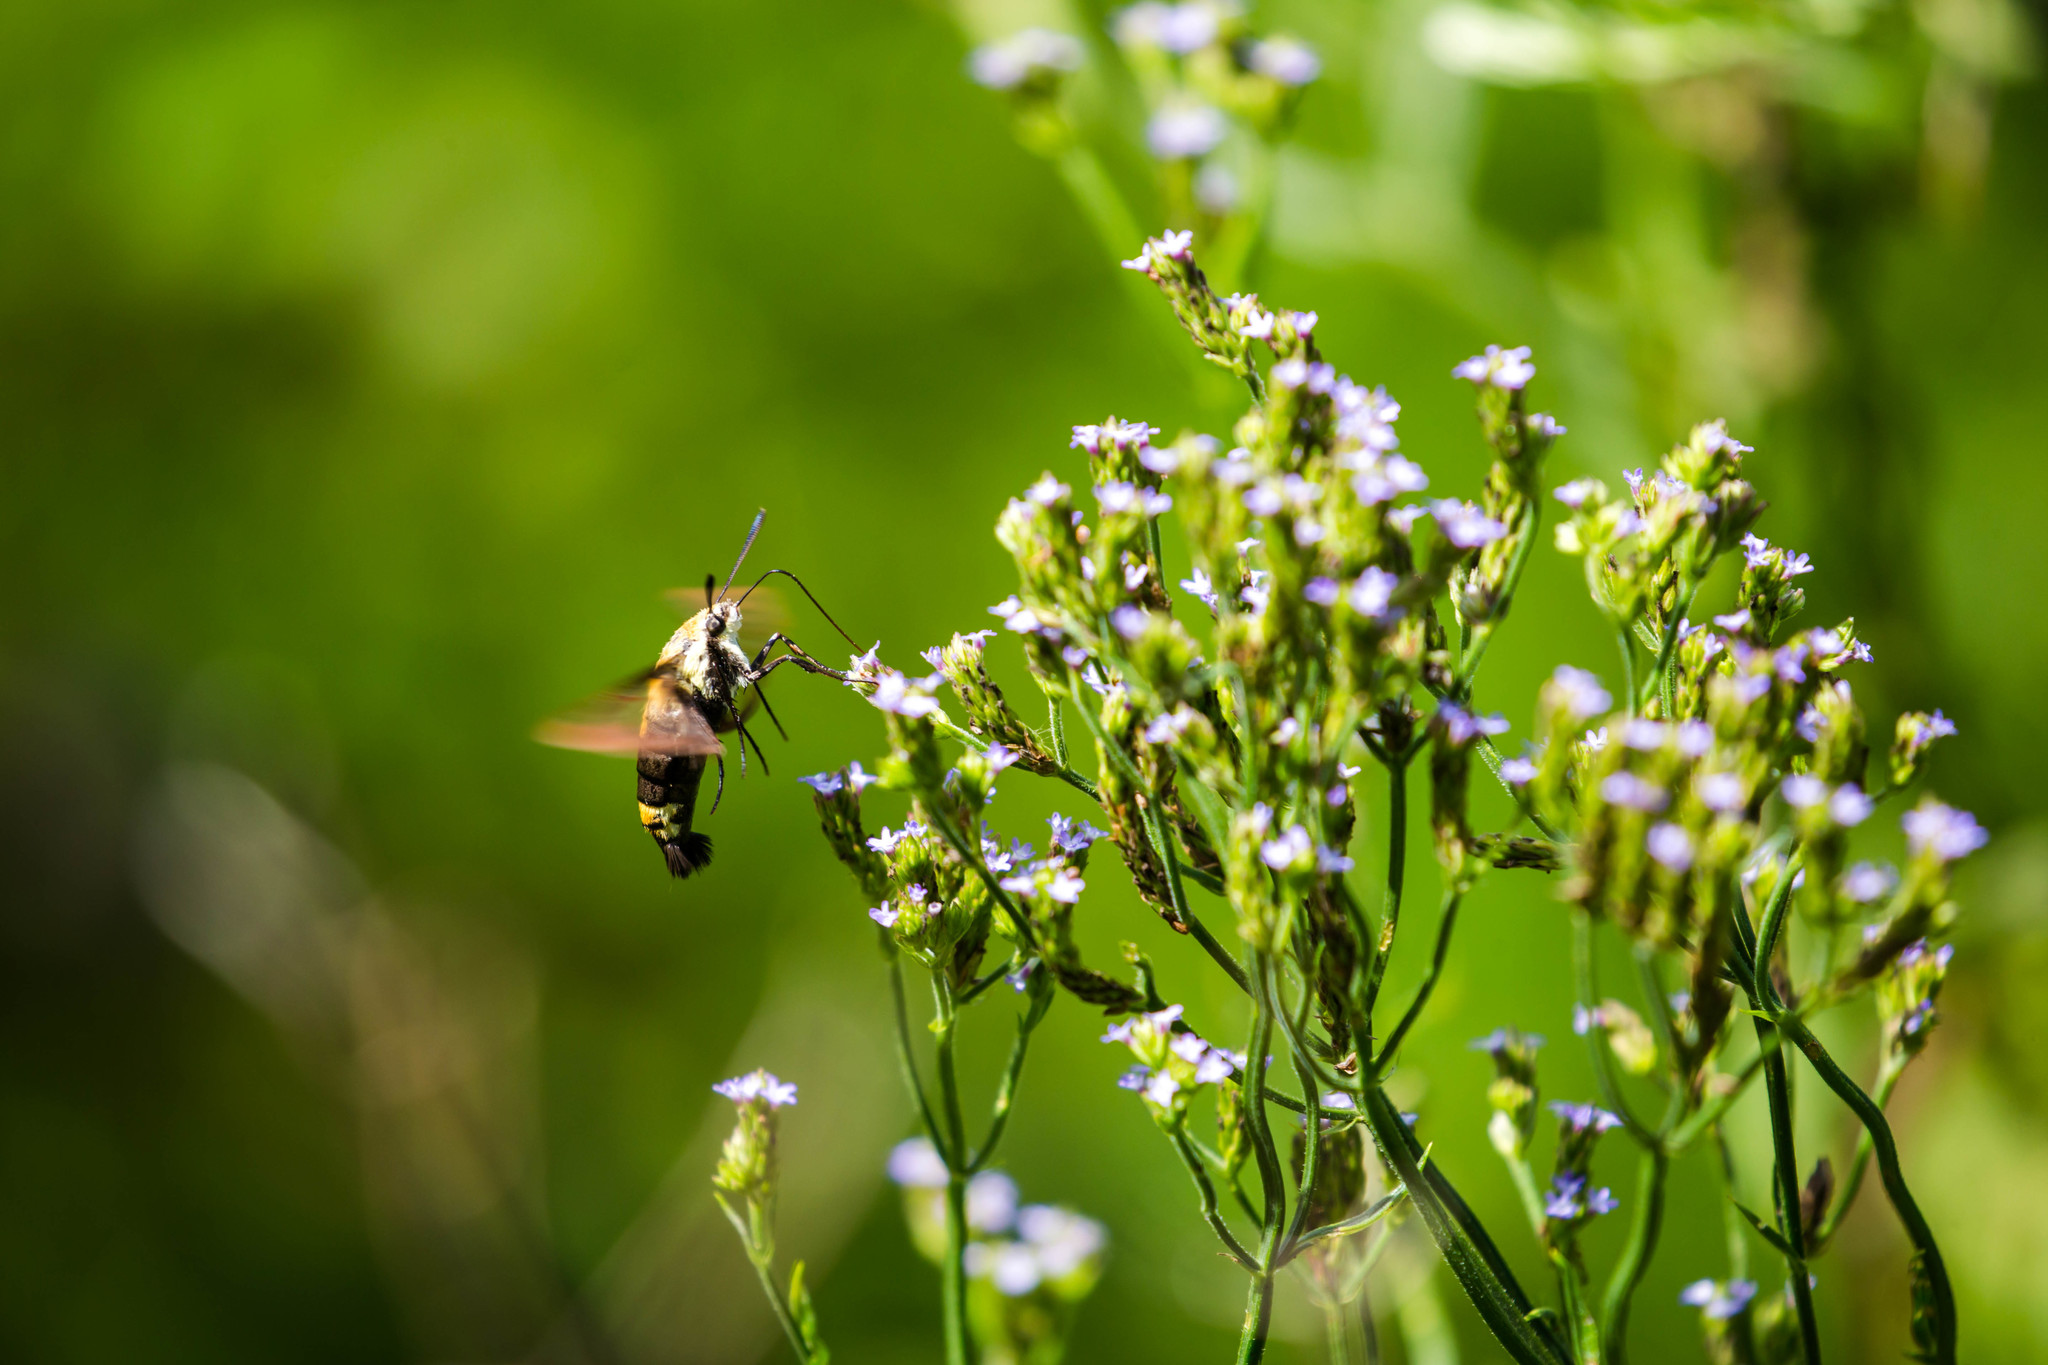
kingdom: Animalia
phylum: Arthropoda
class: Insecta
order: Lepidoptera
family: Sphingidae
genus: Hemaris
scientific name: Hemaris diffinis
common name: Bumblebee moth
